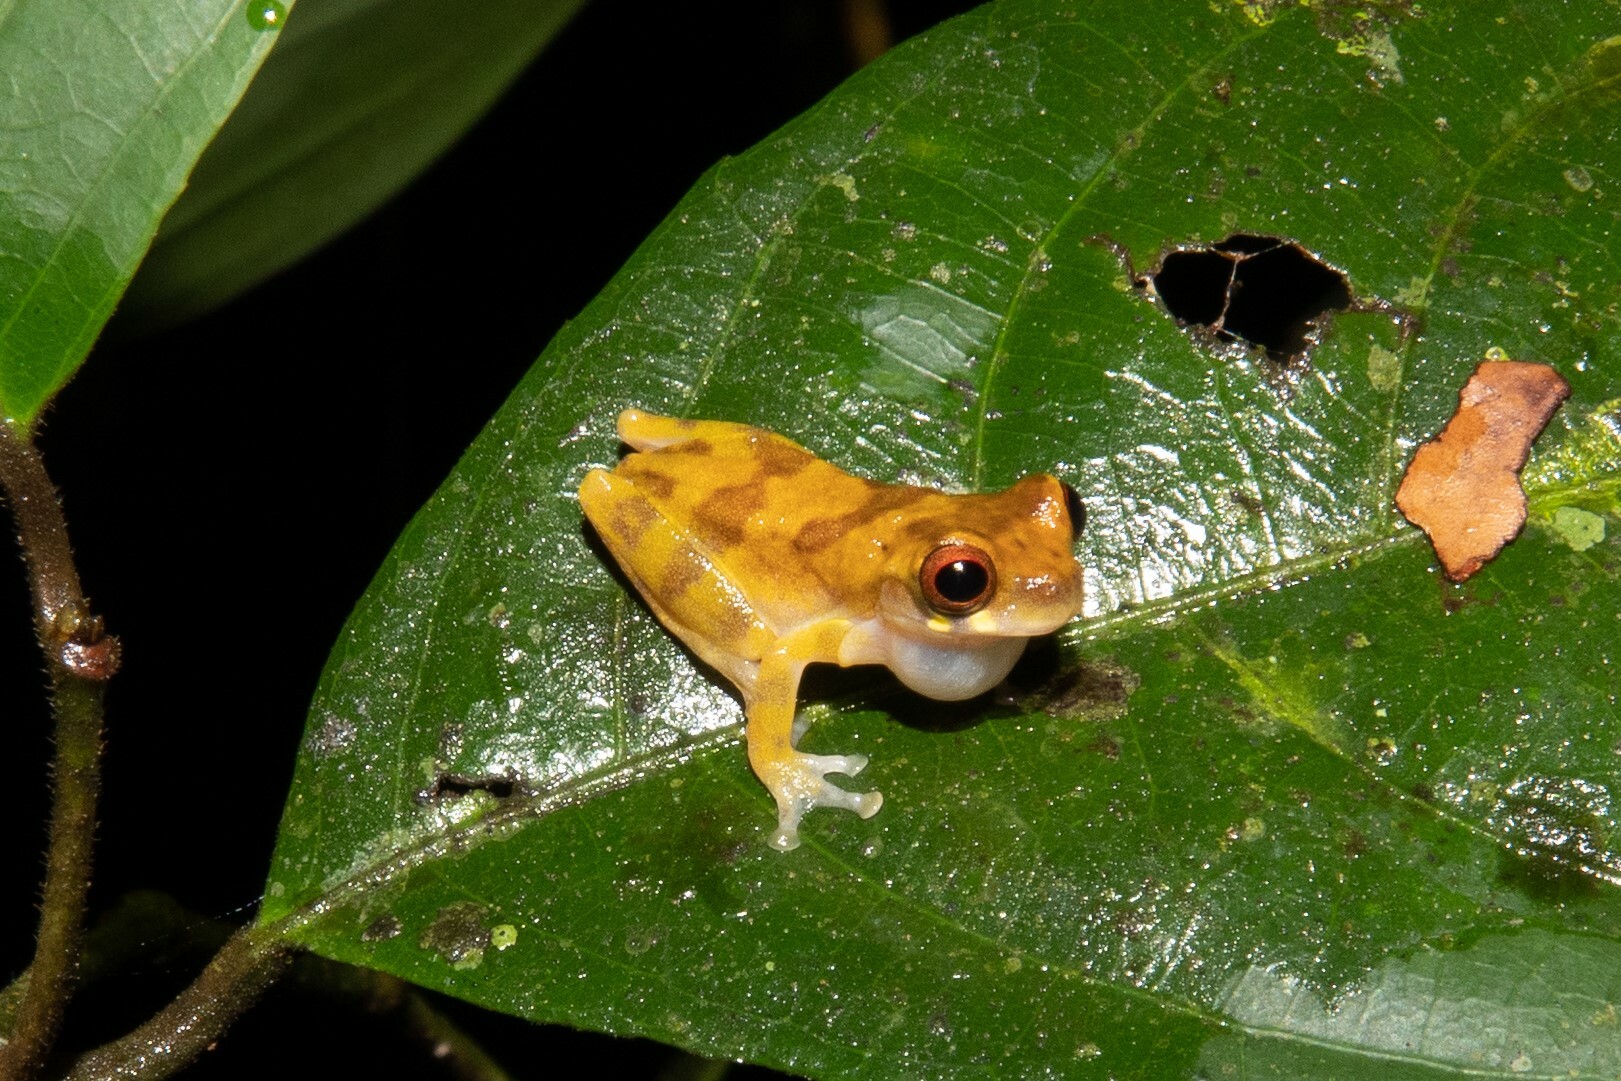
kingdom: Animalia
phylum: Chordata
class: Amphibia
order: Anura
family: Hylidae
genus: Dendropsophus
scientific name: Dendropsophus parviceps
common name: Sarayacu treefrog
